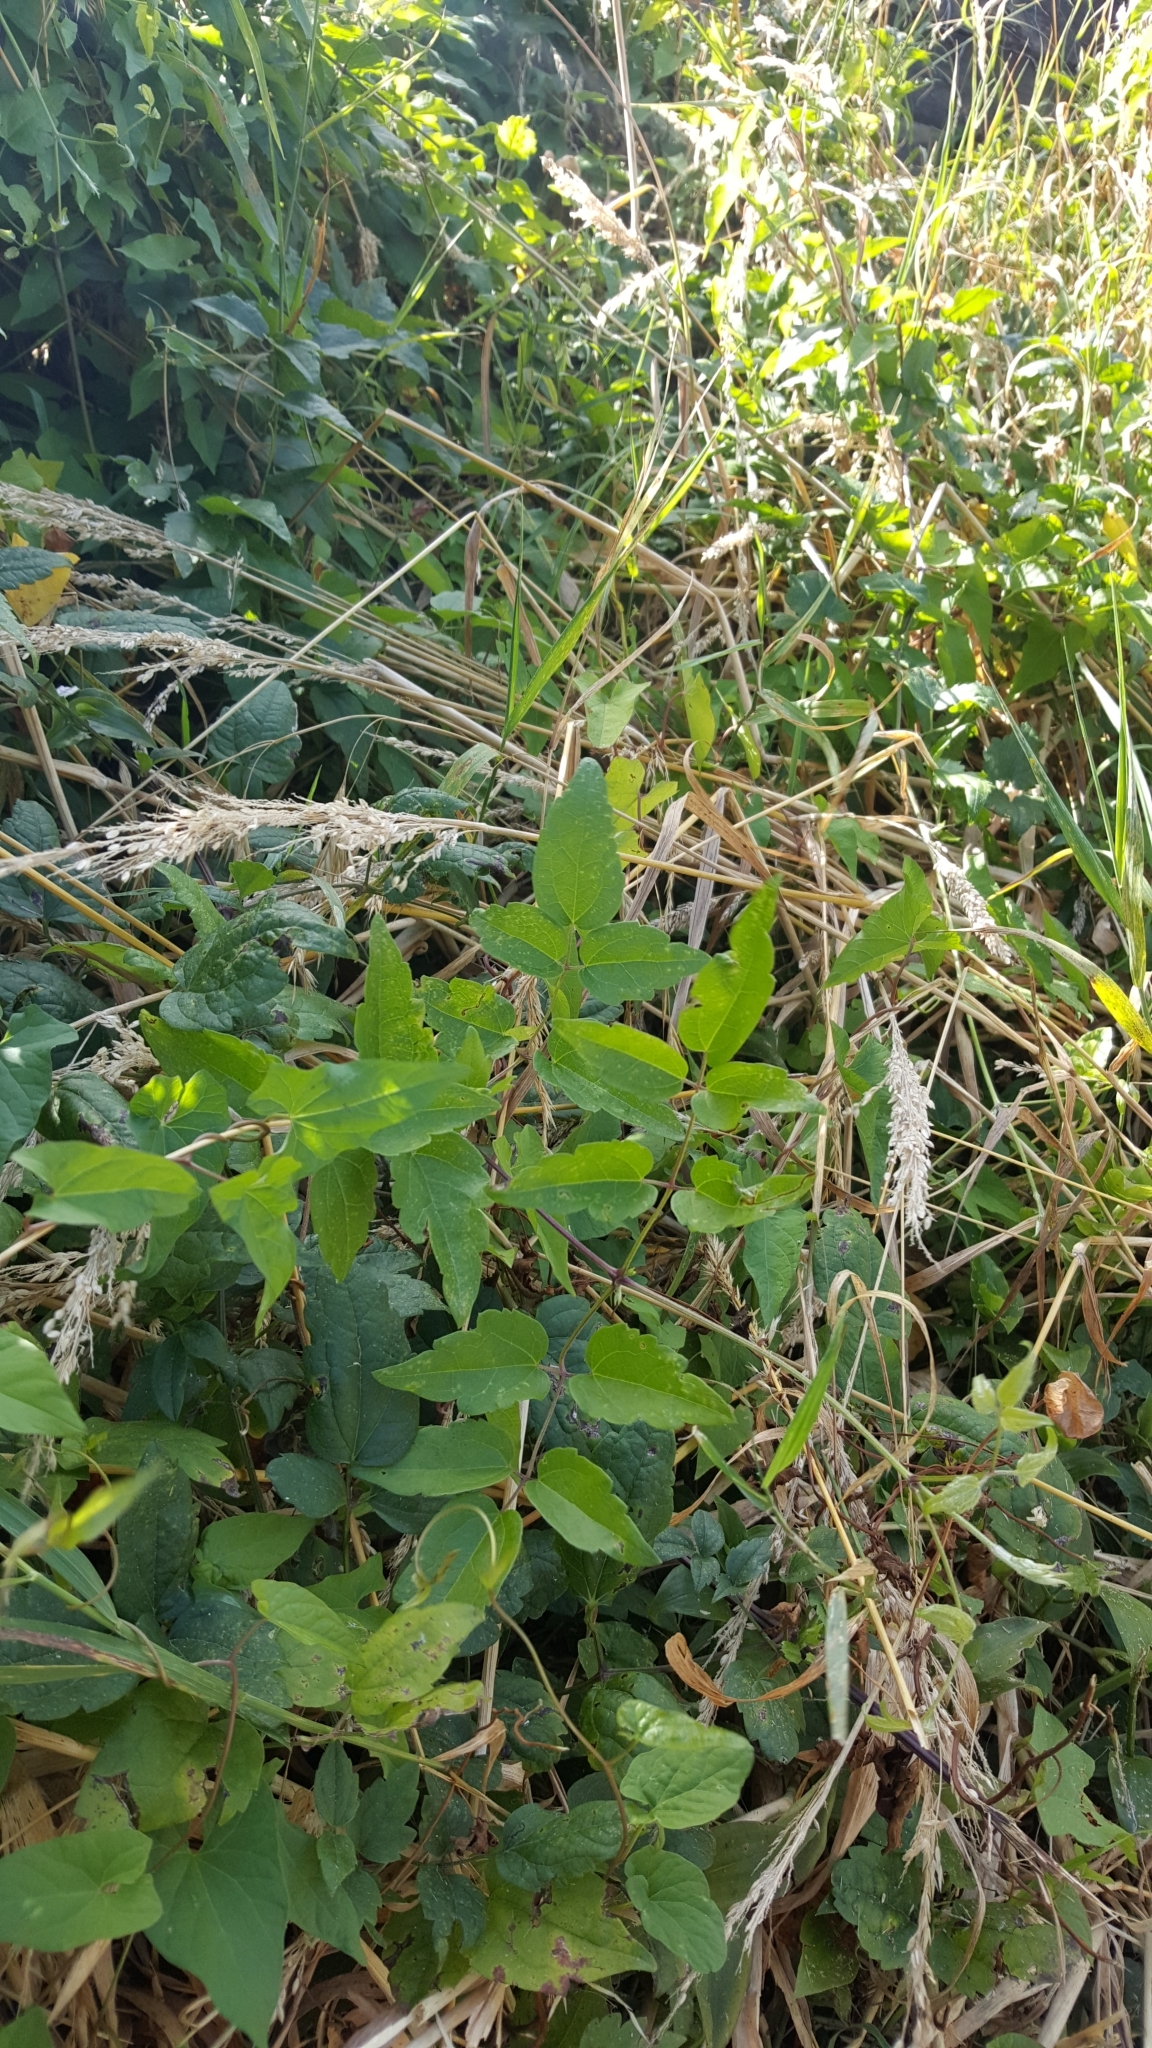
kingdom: Plantae
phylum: Tracheophyta
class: Magnoliopsida
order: Ranunculales
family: Ranunculaceae
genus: Clematis
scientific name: Clematis vitalba
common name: Evergreen clematis
